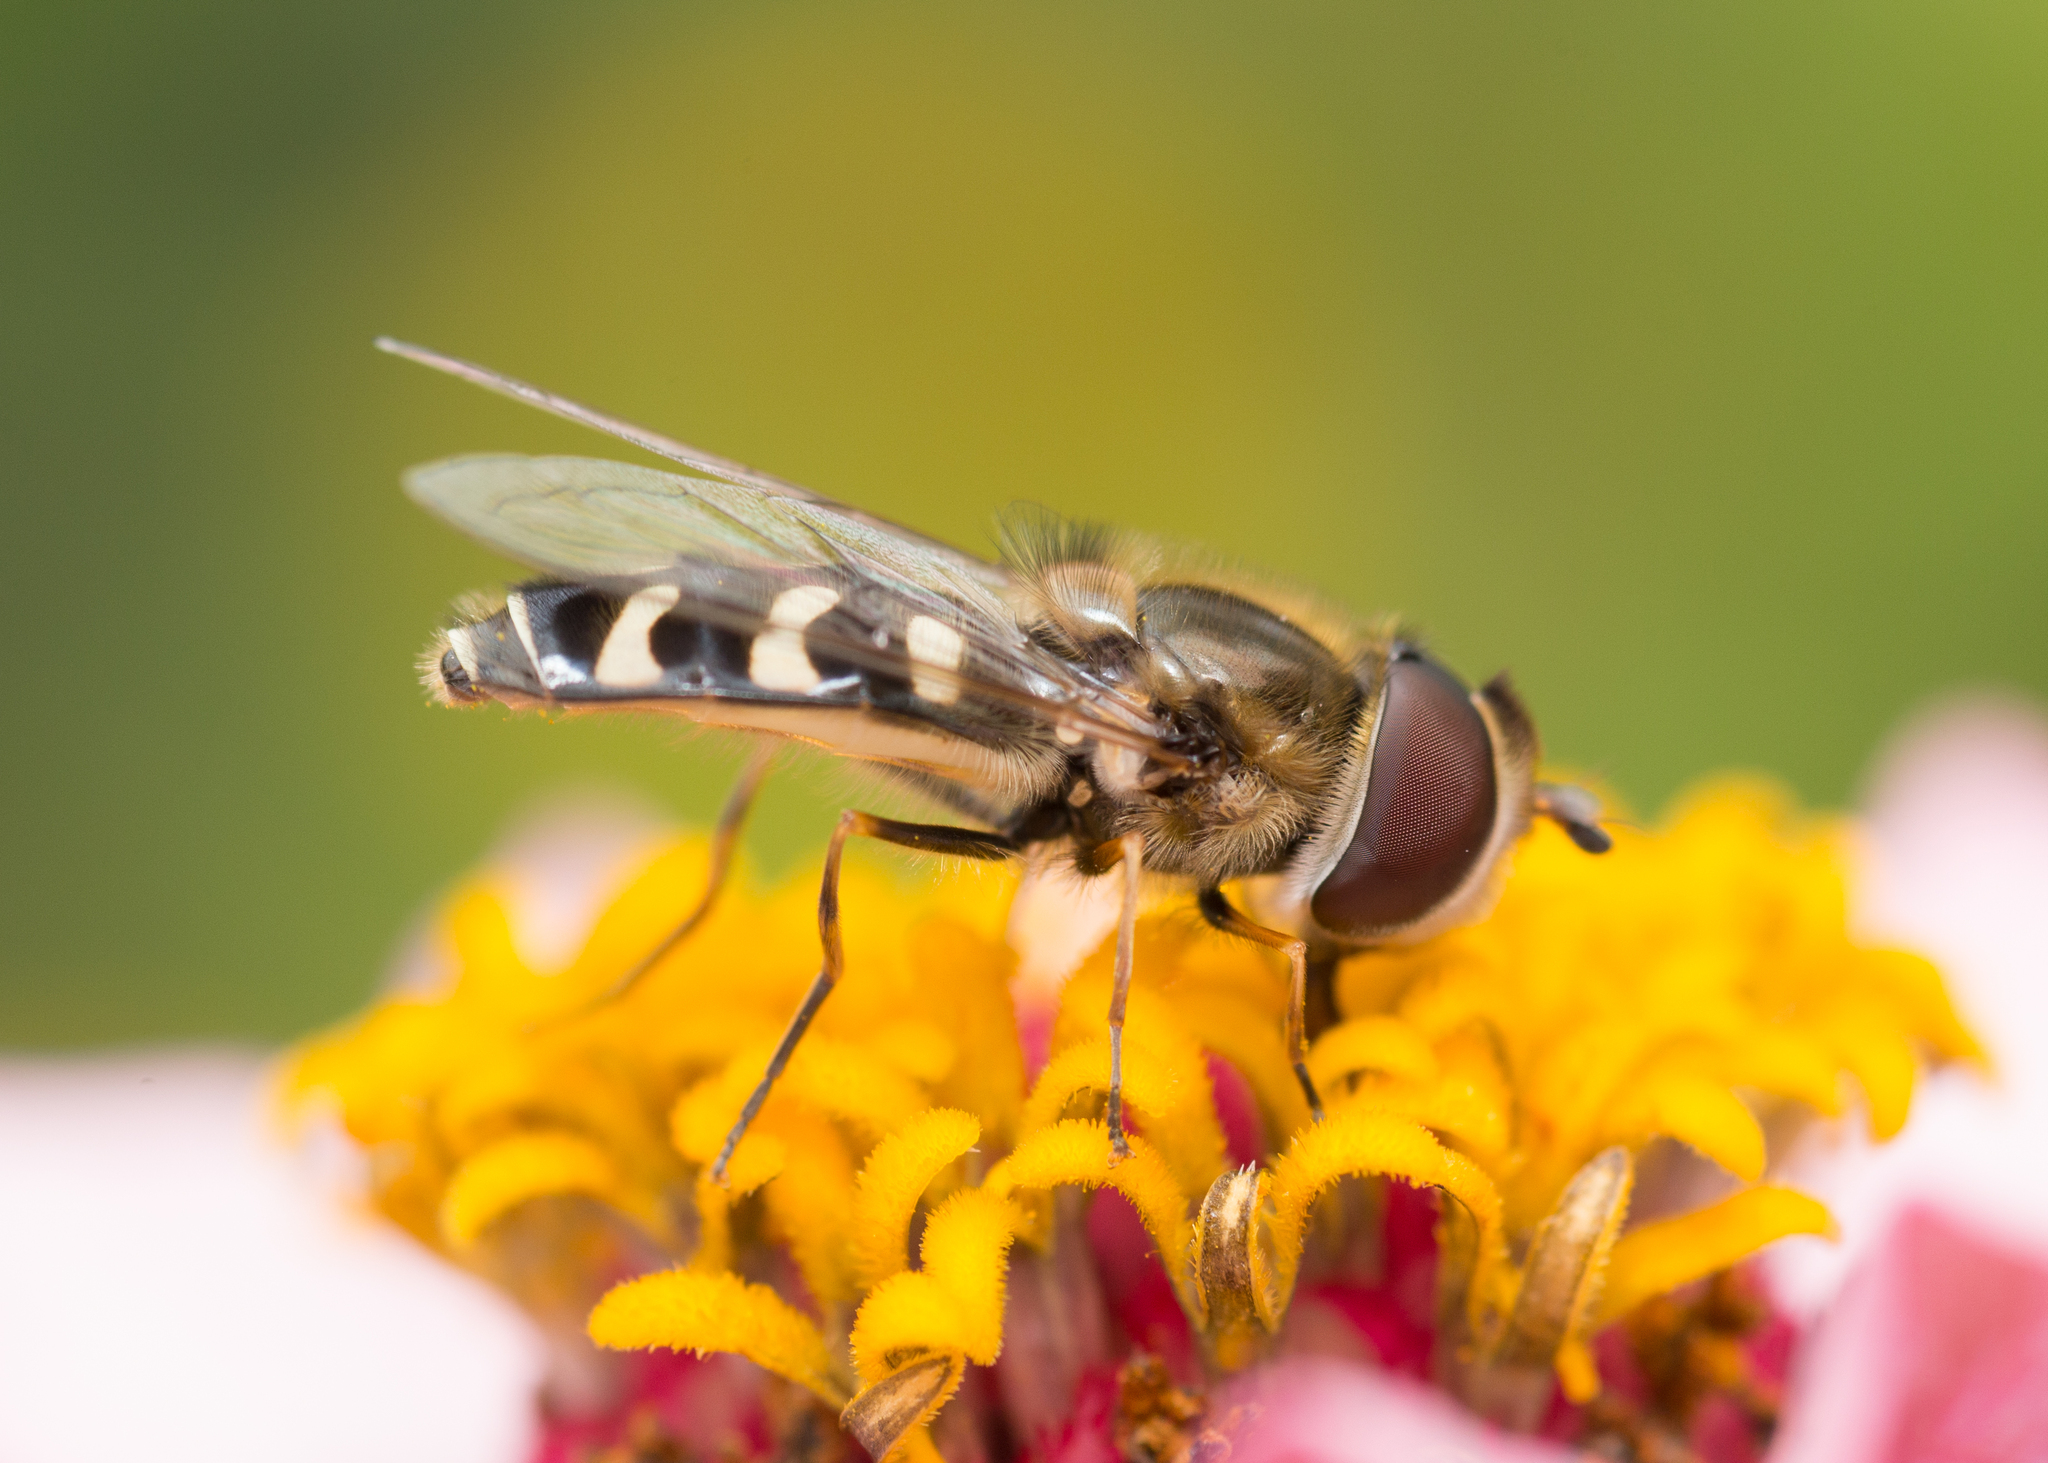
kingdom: Animalia
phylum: Arthropoda
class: Insecta
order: Diptera
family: Syrphidae
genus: Scaeva
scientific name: Scaeva pyrastri
